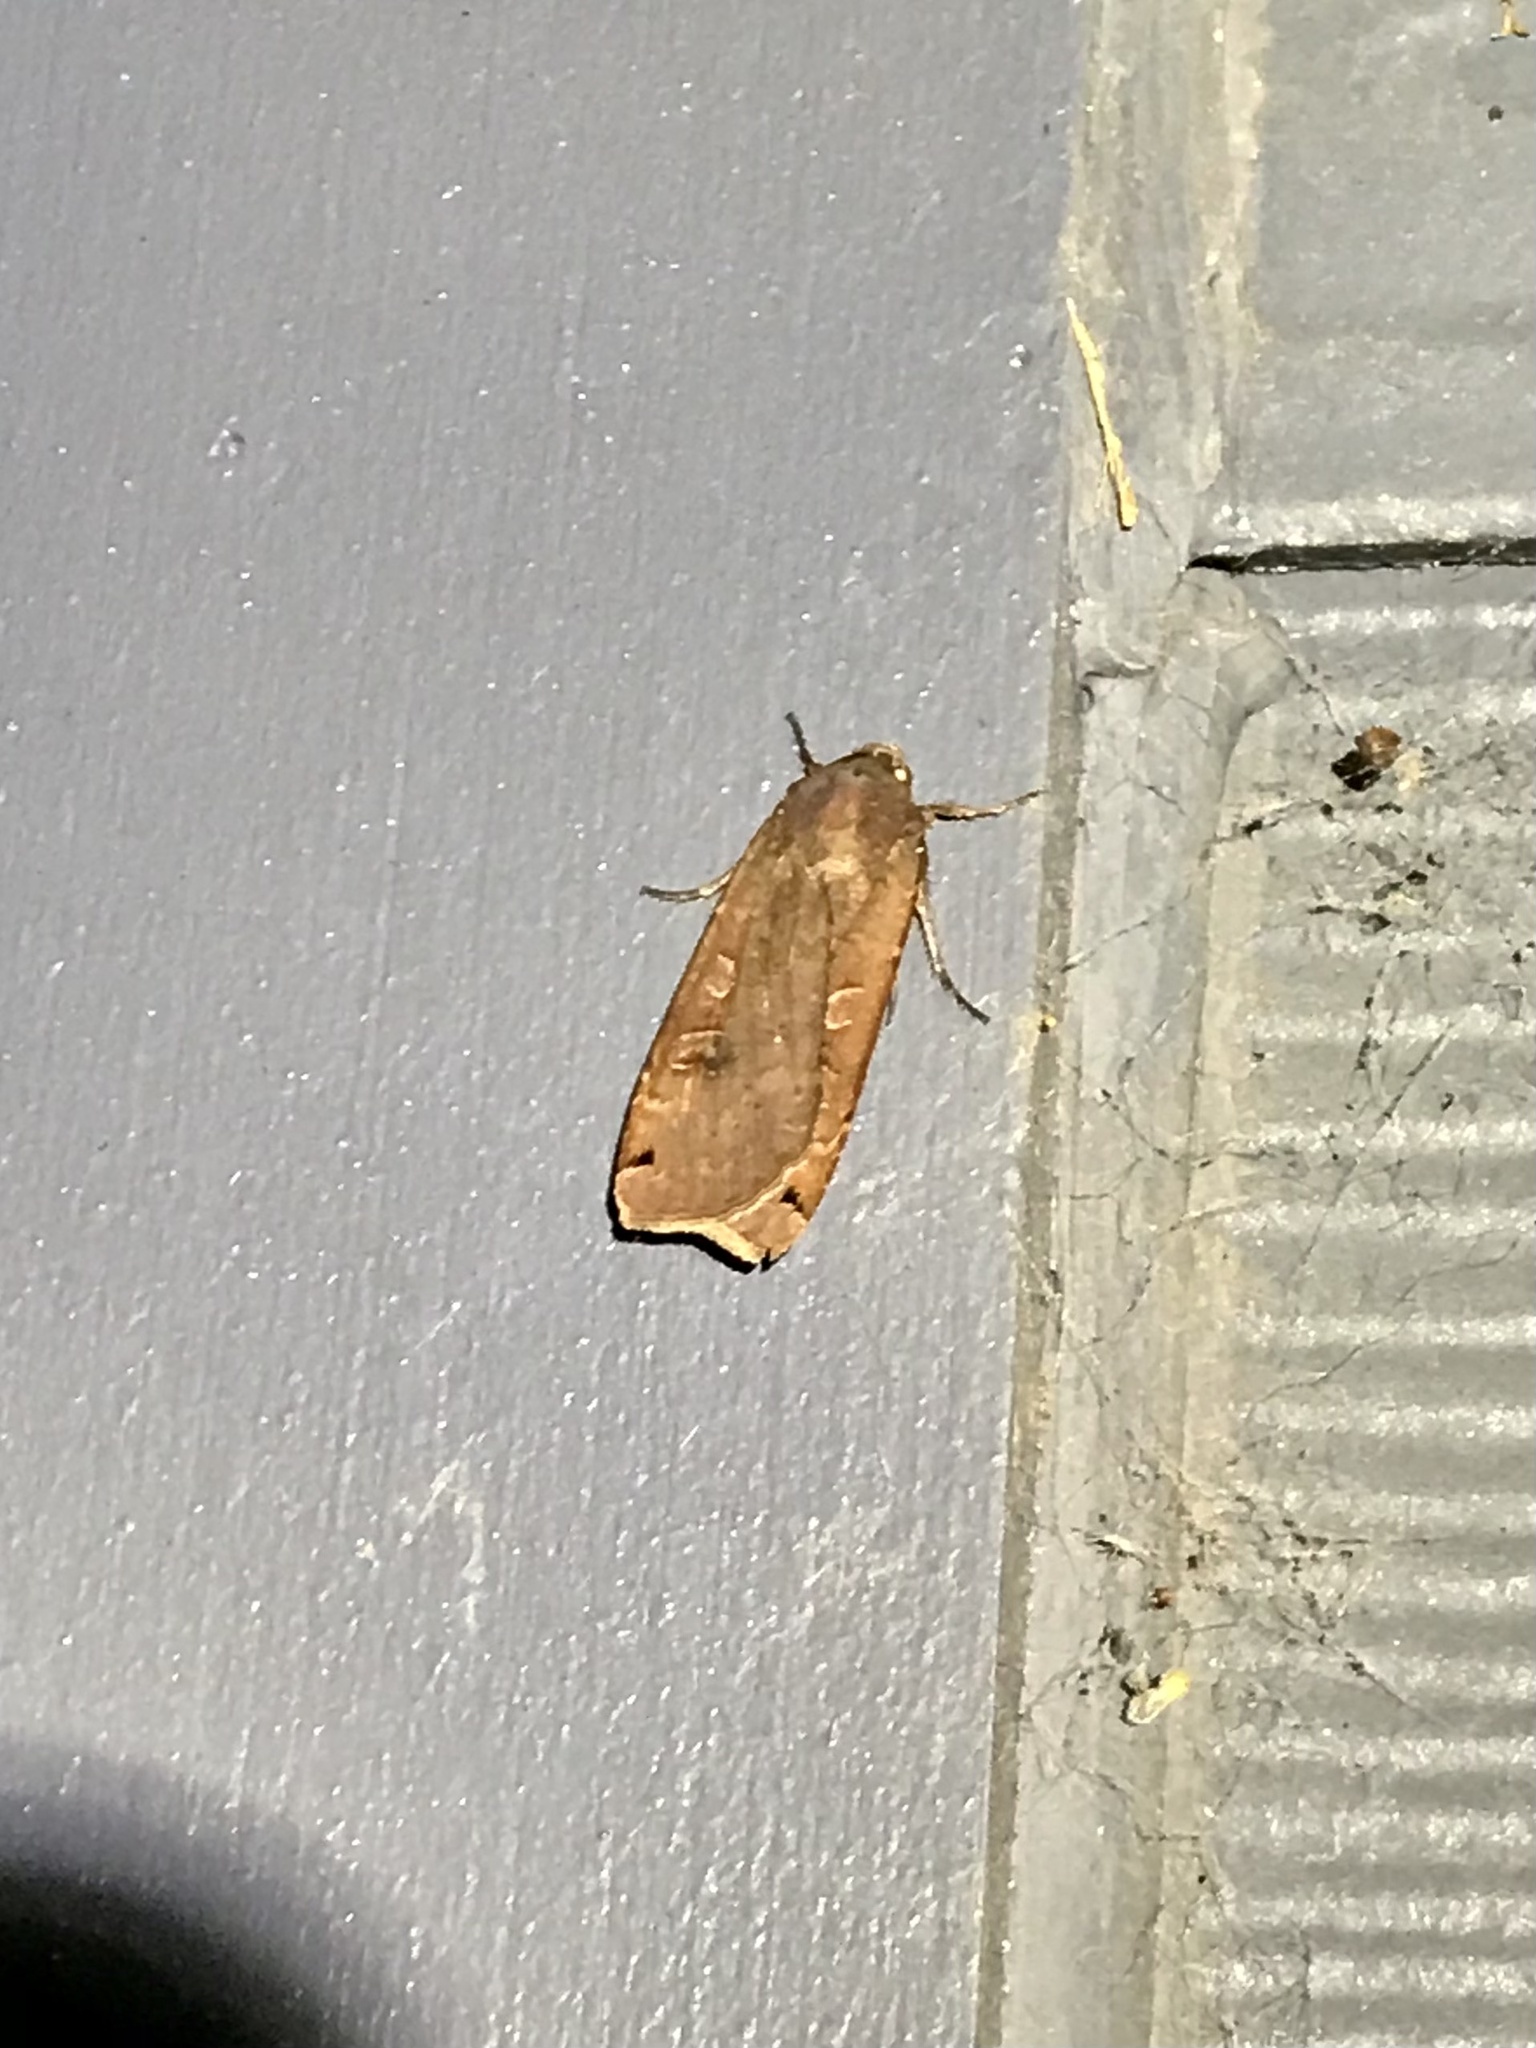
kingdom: Animalia
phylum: Arthropoda
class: Insecta
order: Lepidoptera
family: Noctuidae
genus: Noctua
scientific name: Noctua pronuba
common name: Large yellow underwing
